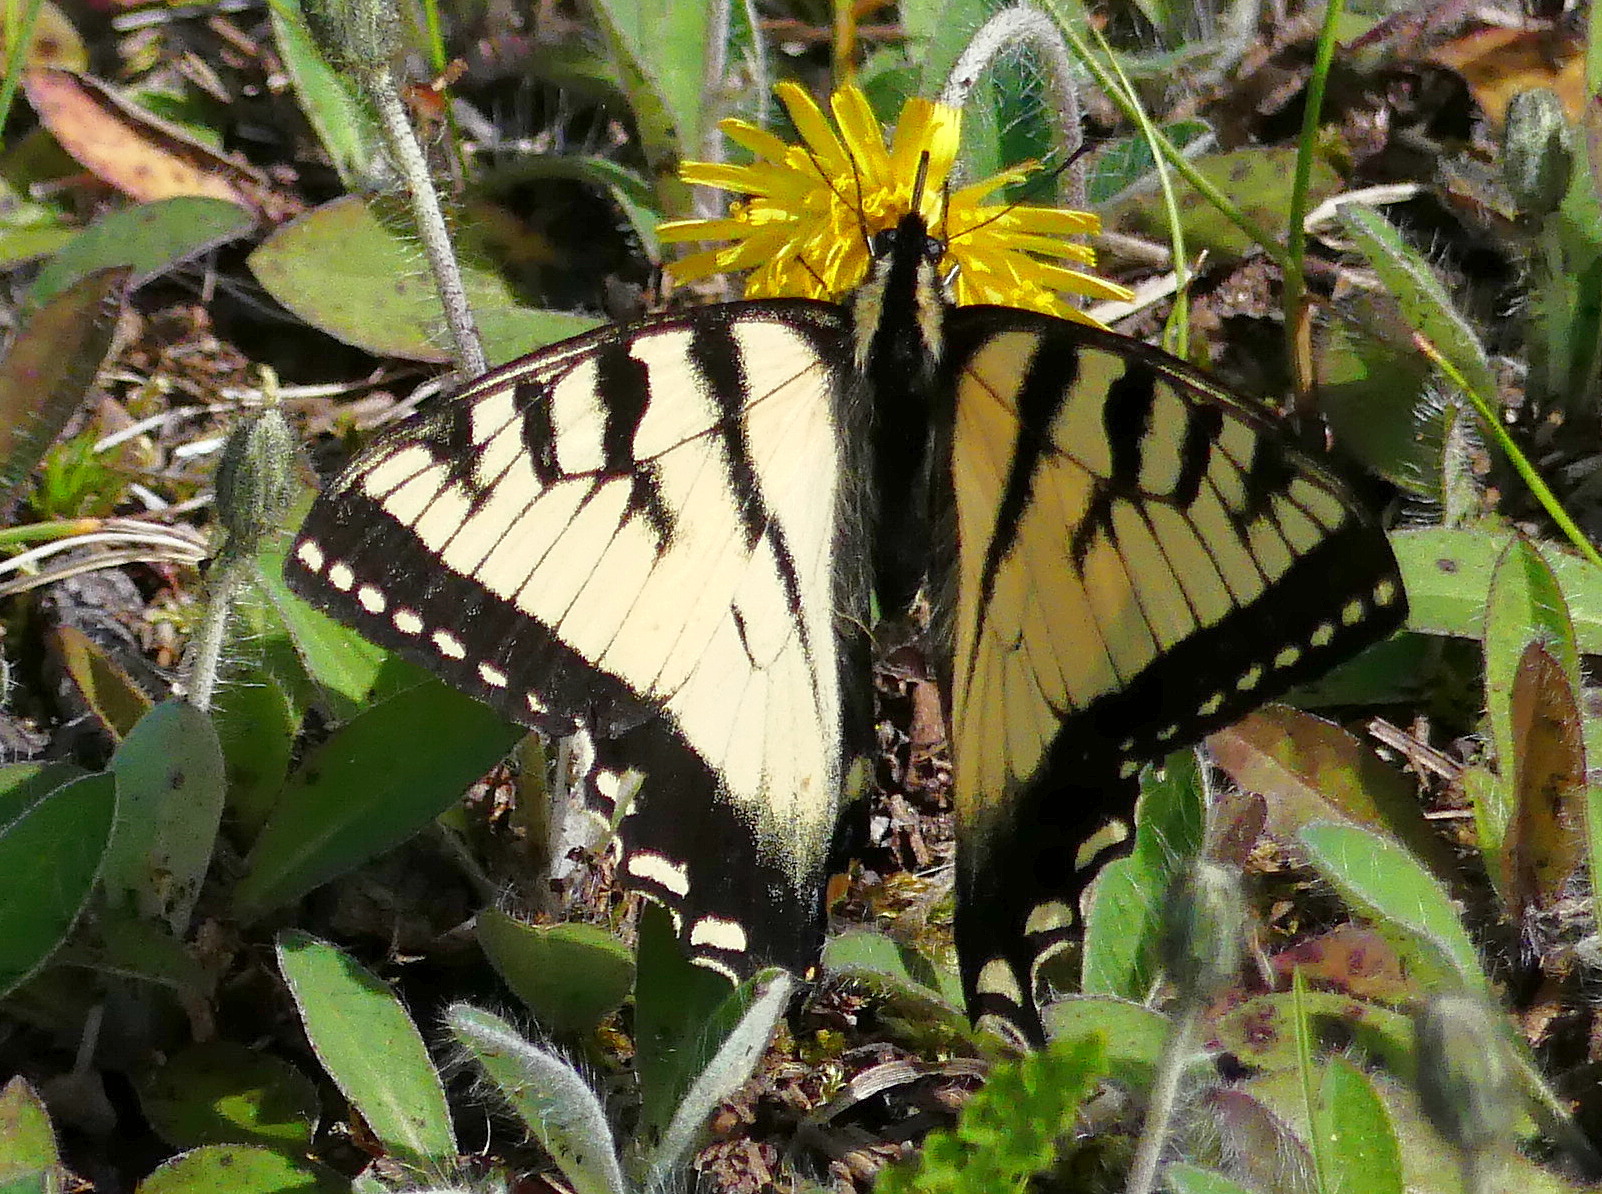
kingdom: Animalia
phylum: Arthropoda
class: Insecta
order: Lepidoptera
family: Papilionidae
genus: Papilio
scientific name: Papilio canadensis
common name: Canadian tiger swallowtail
